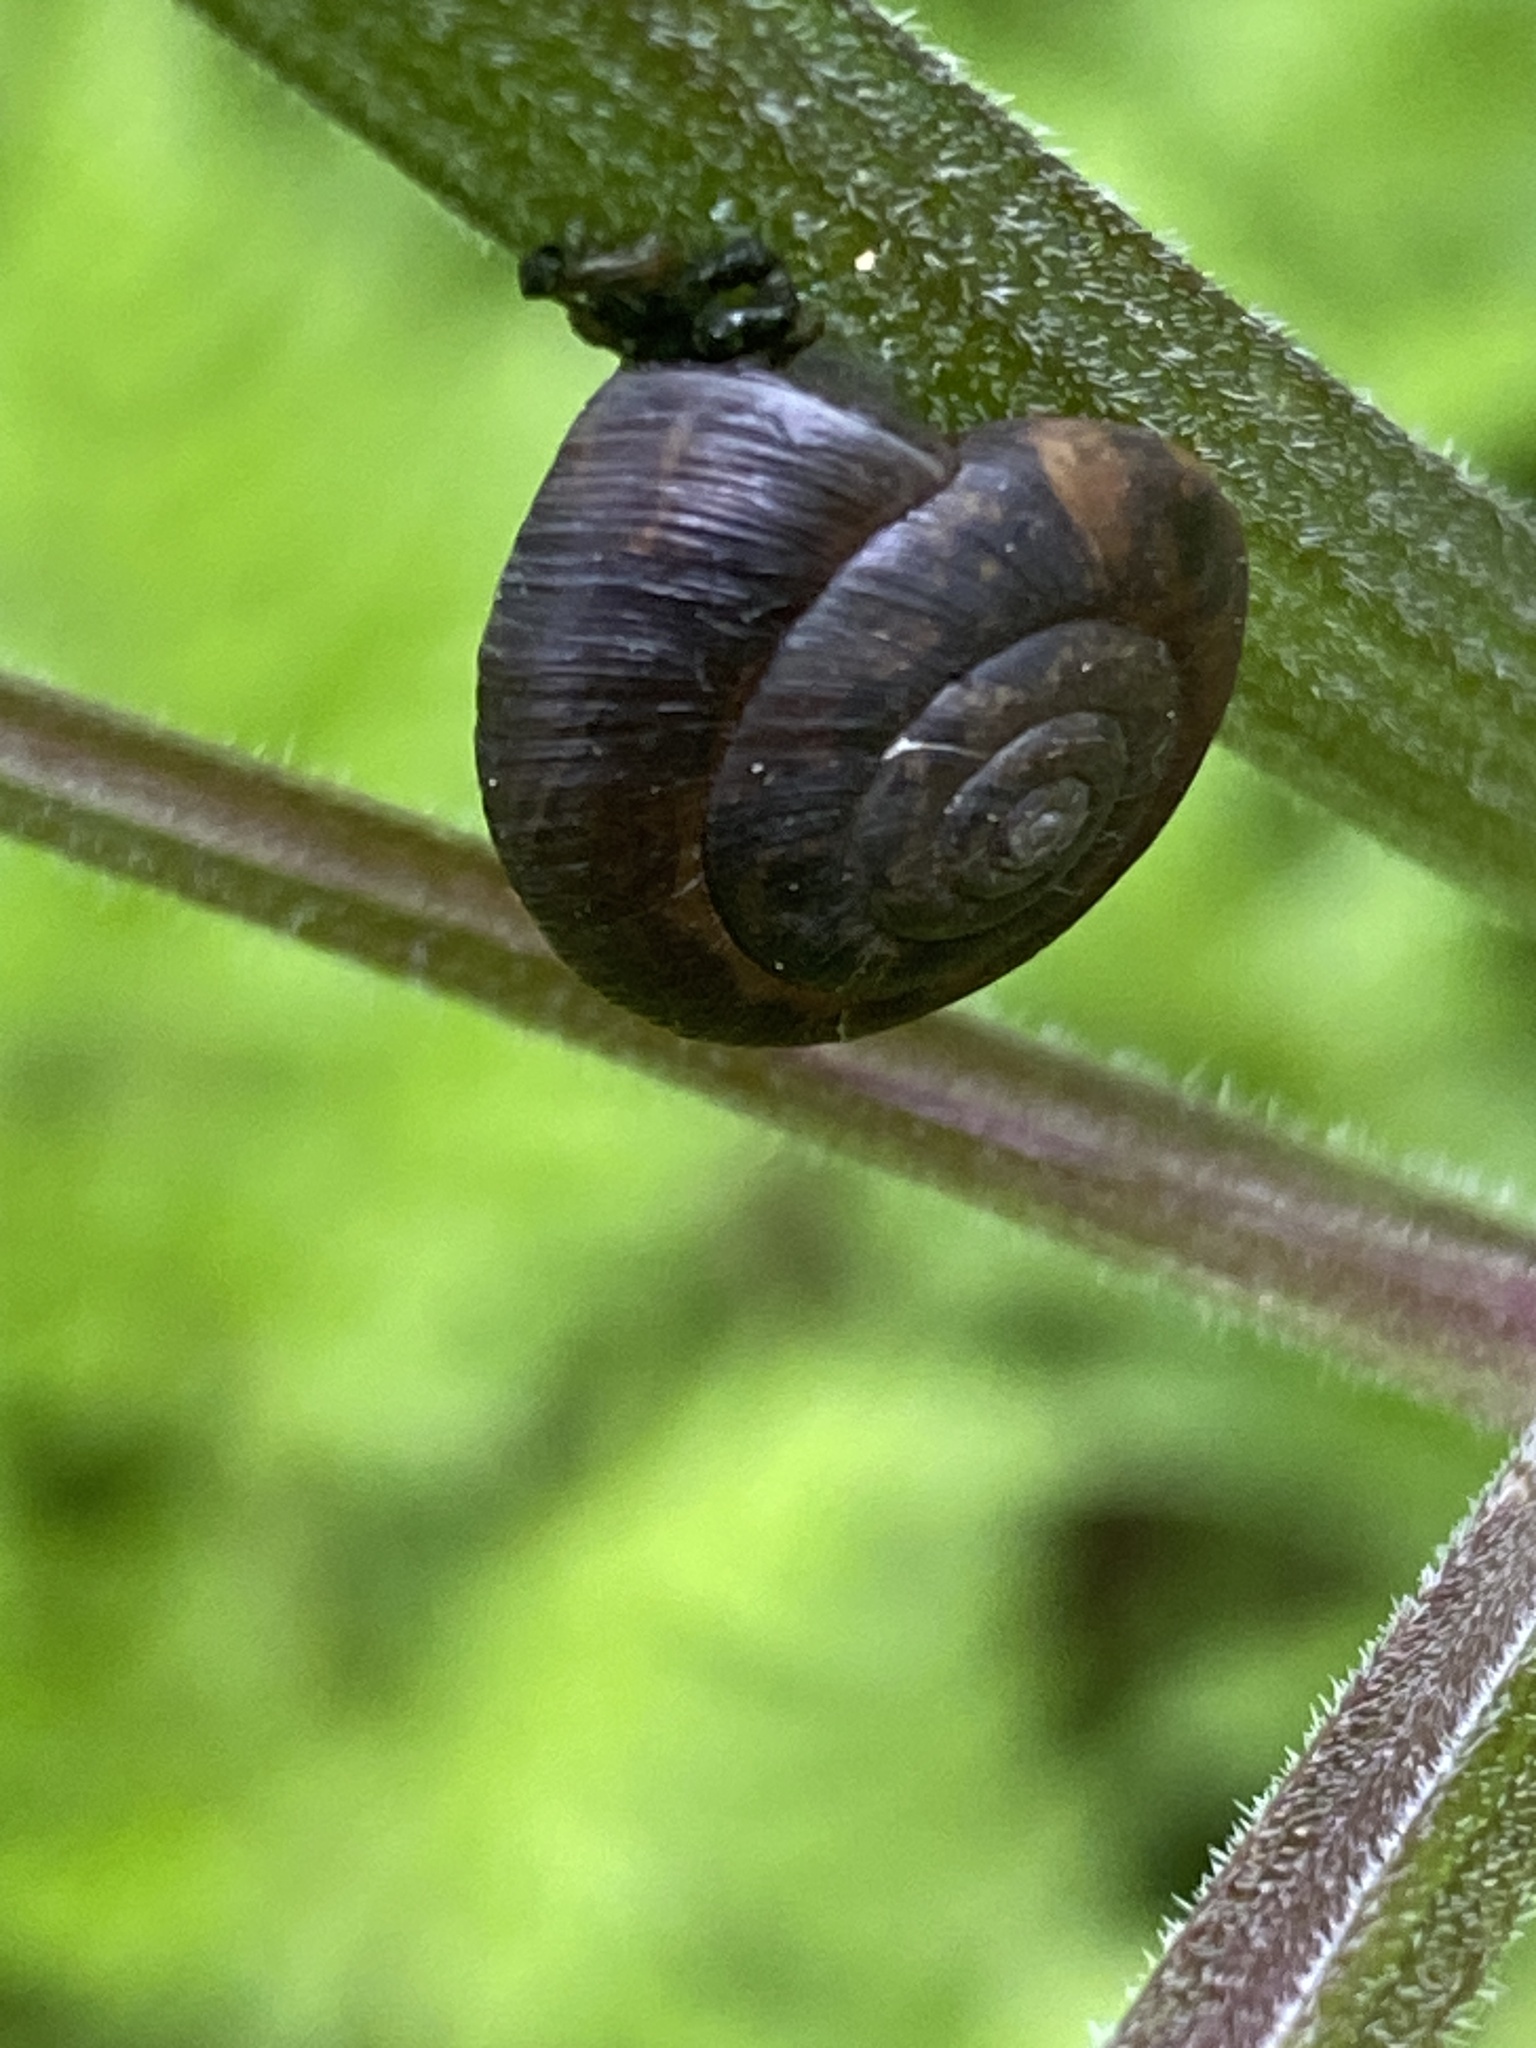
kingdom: Animalia
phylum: Mollusca
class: Gastropoda
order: Stylommatophora
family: Hygromiidae
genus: Trochulus
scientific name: Trochulus striolatus
